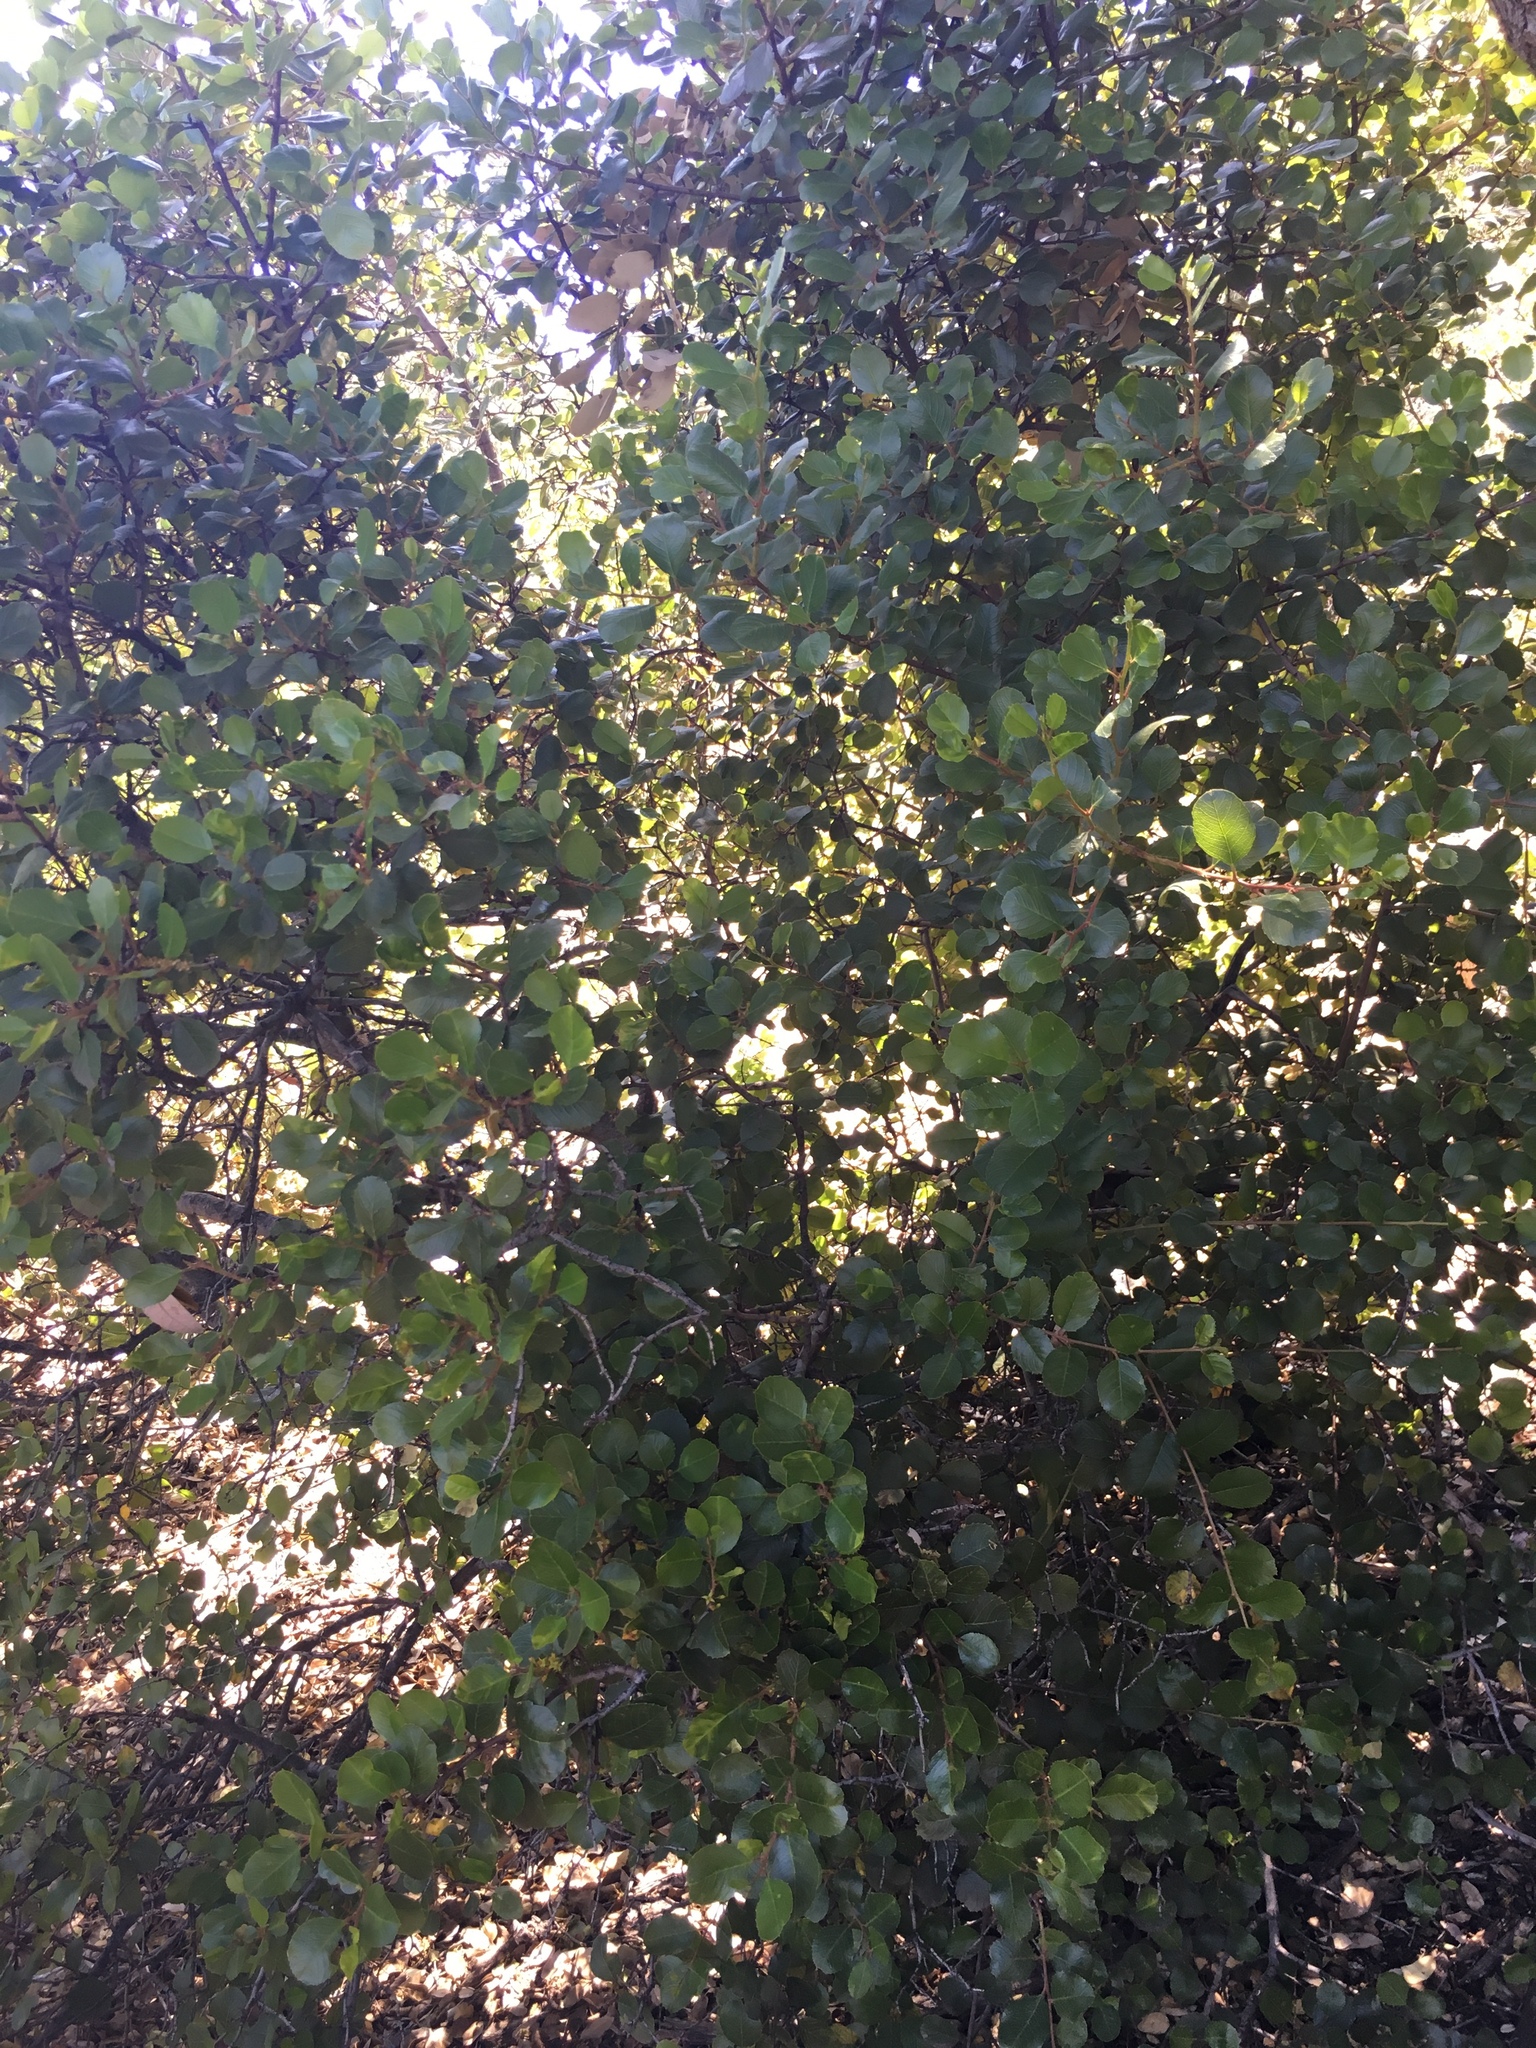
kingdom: Plantae
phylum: Tracheophyta
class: Magnoliopsida
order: Rosales
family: Rhamnaceae
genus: Endotropis
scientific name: Endotropis crocea
